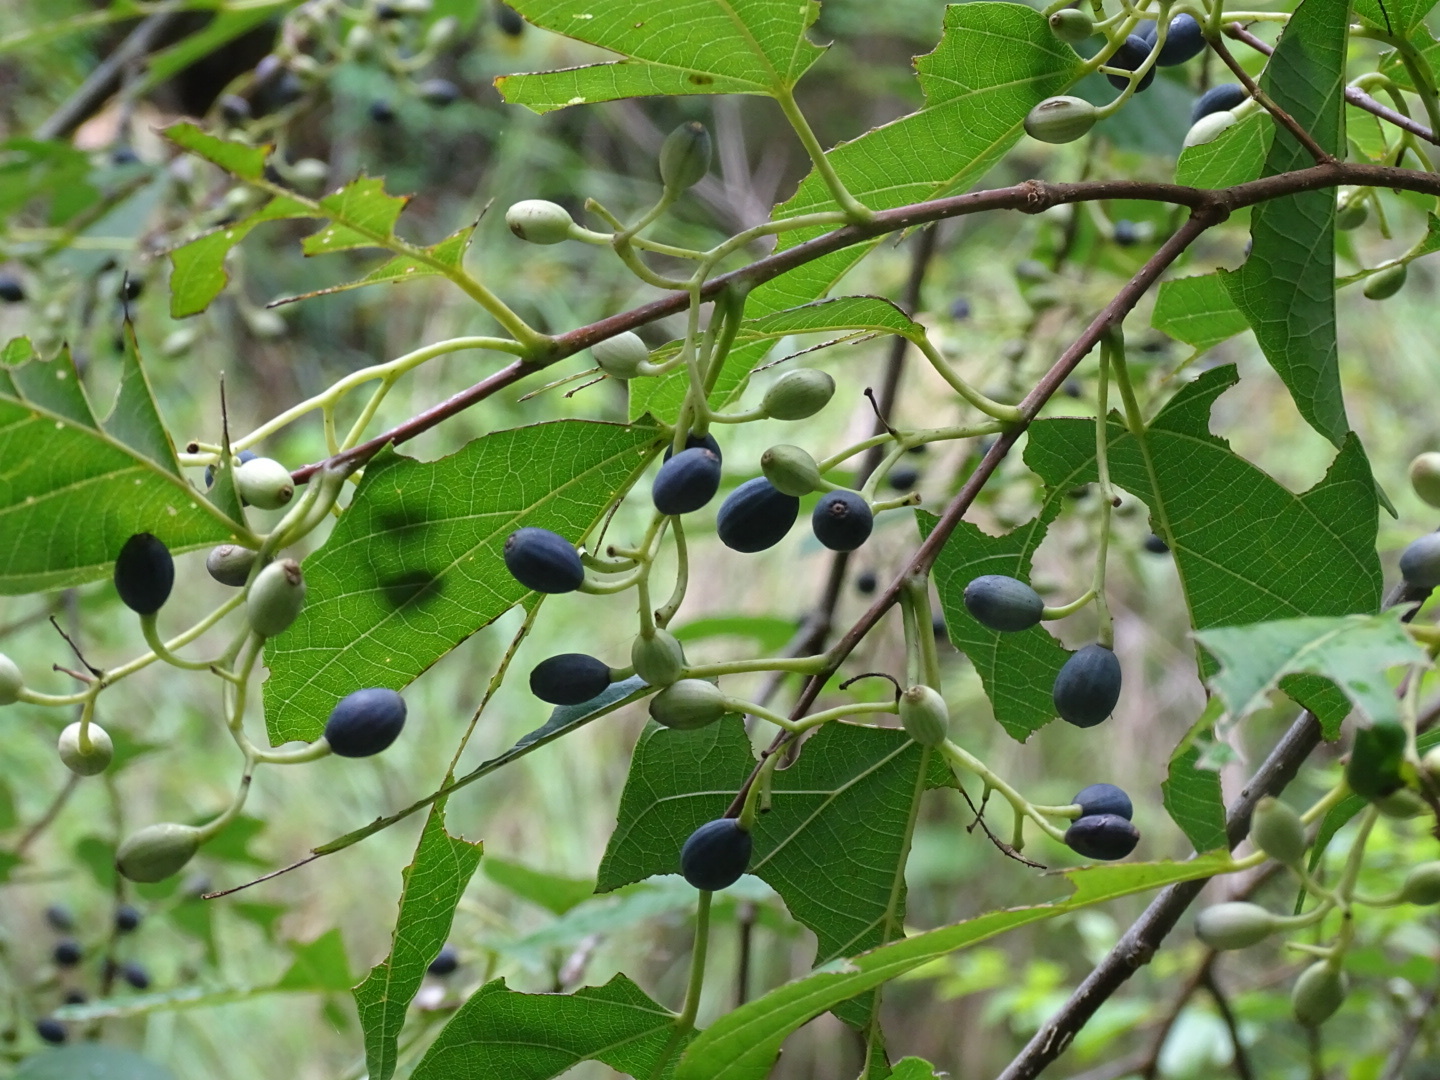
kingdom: Plantae
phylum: Tracheophyta
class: Magnoliopsida
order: Cornales
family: Cornaceae
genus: Alangium
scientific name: Alangium chinense
